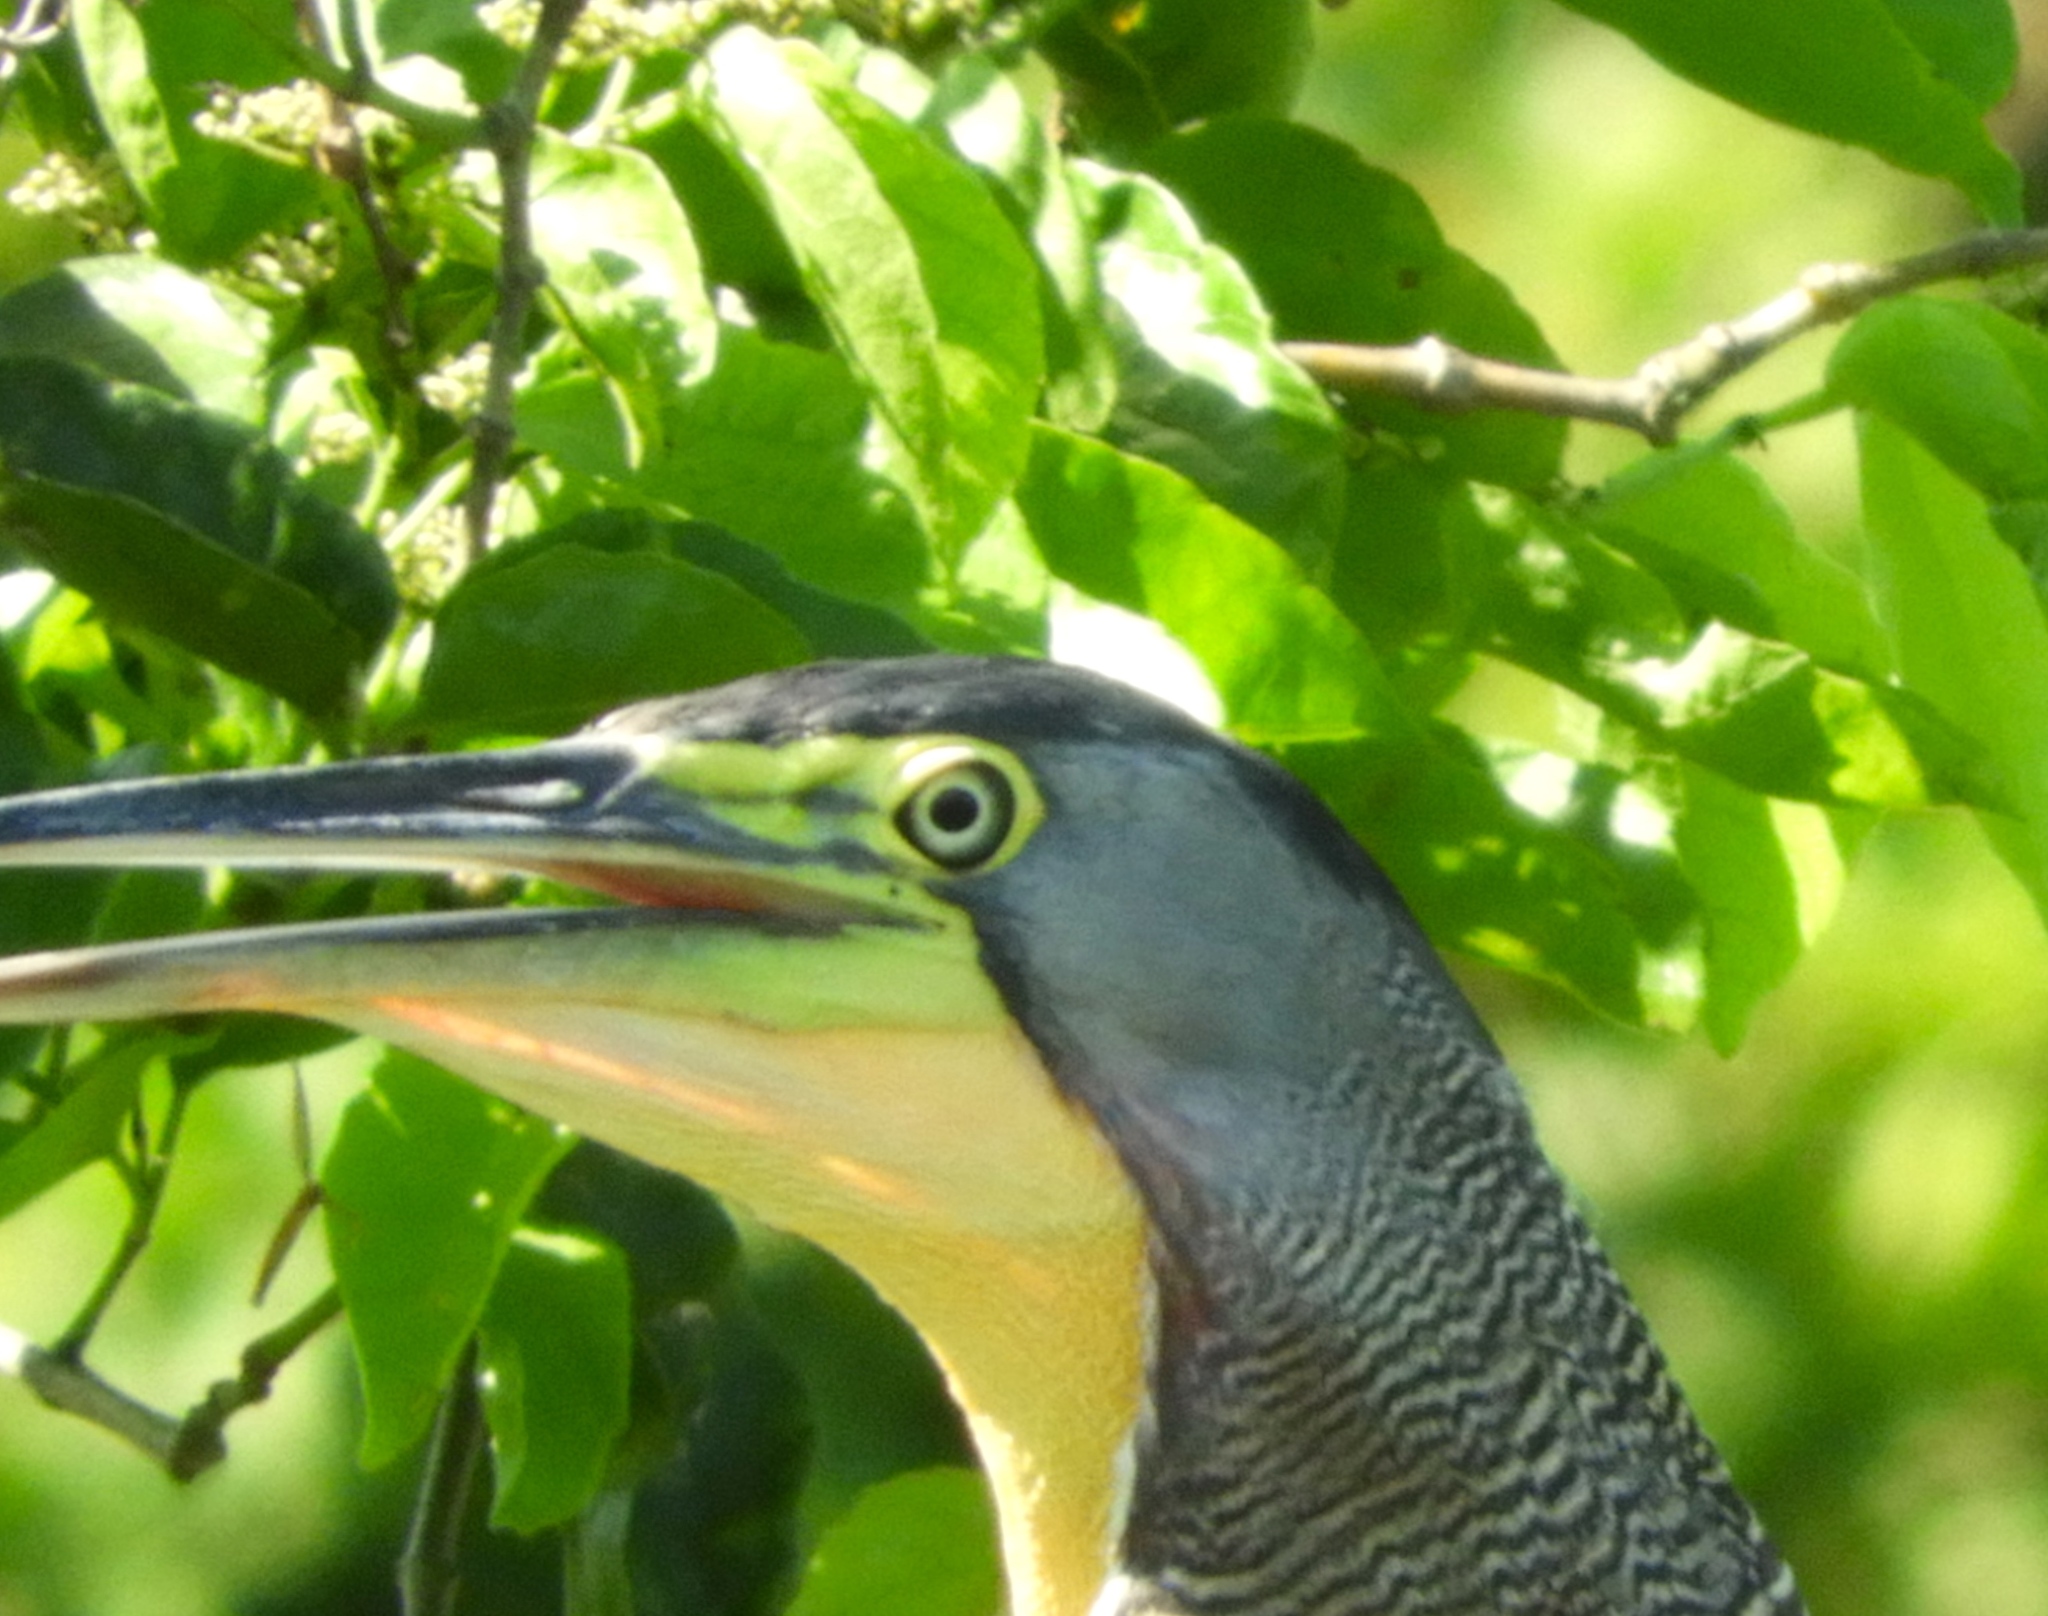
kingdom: Animalia
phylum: Chordata
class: Aves
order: Pelecaniformes
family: Ardeidae
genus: Tigrisoma
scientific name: Tigrisoma mexicanum
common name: Bare-throated tiger-heron
